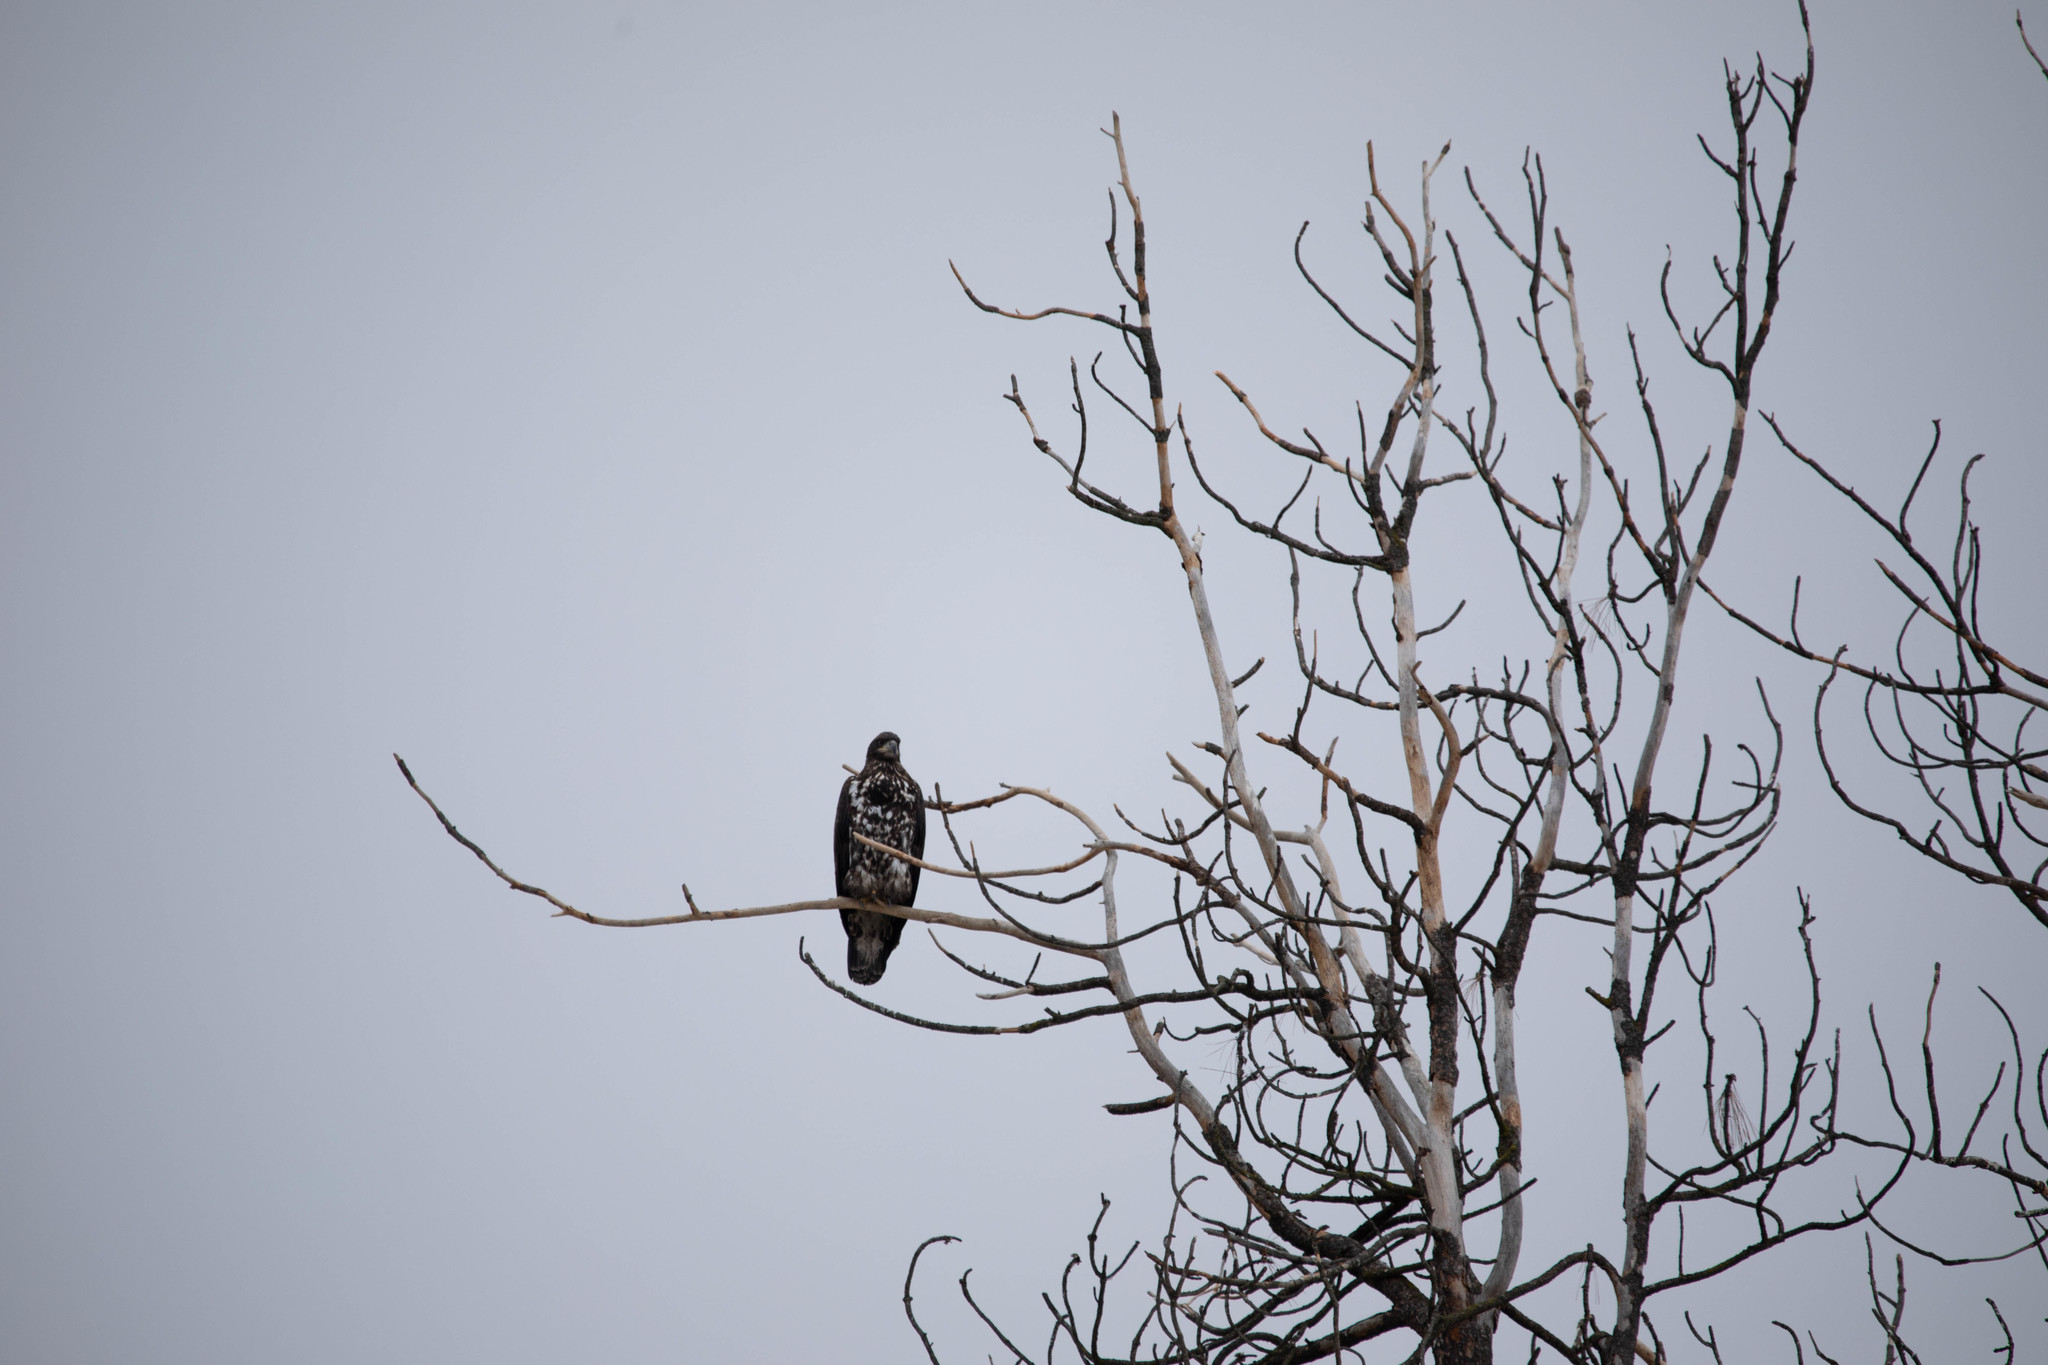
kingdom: Animalia
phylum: Chordata
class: Aves
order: Accipitriformes
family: Accipitridae
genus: Haliaeetus
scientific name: Haliaeetus leucocephalus
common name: Bald eagle
